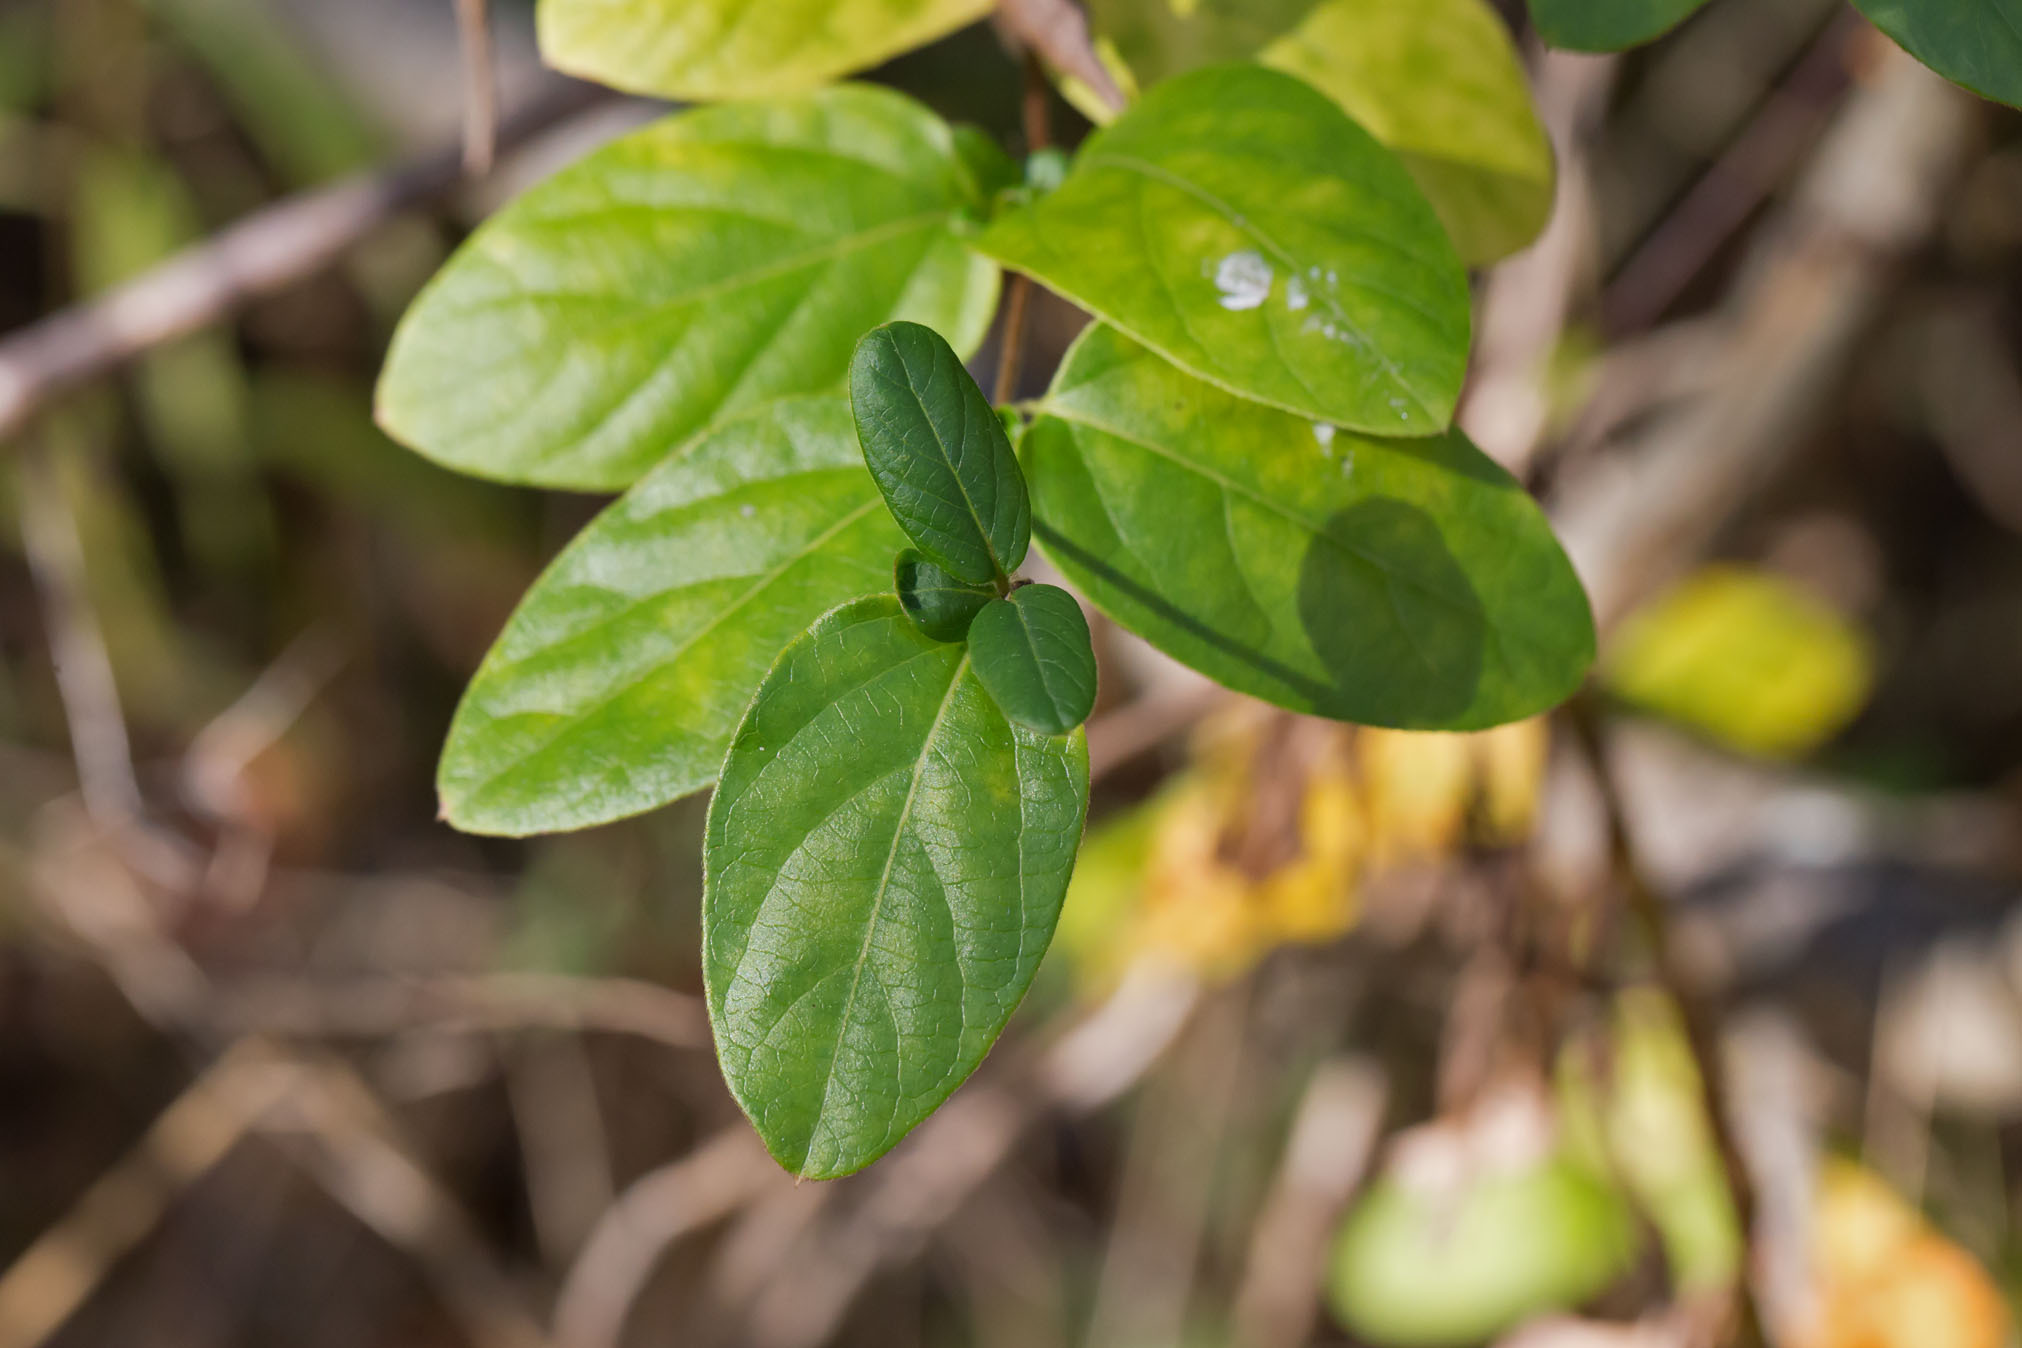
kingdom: Plantae
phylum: Tracheophyta
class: Magnoliopsida
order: Dipsacales
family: Caprifoliaceae
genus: Lonicera
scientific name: Lonicera japonica
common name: Japanese honeysuckle
